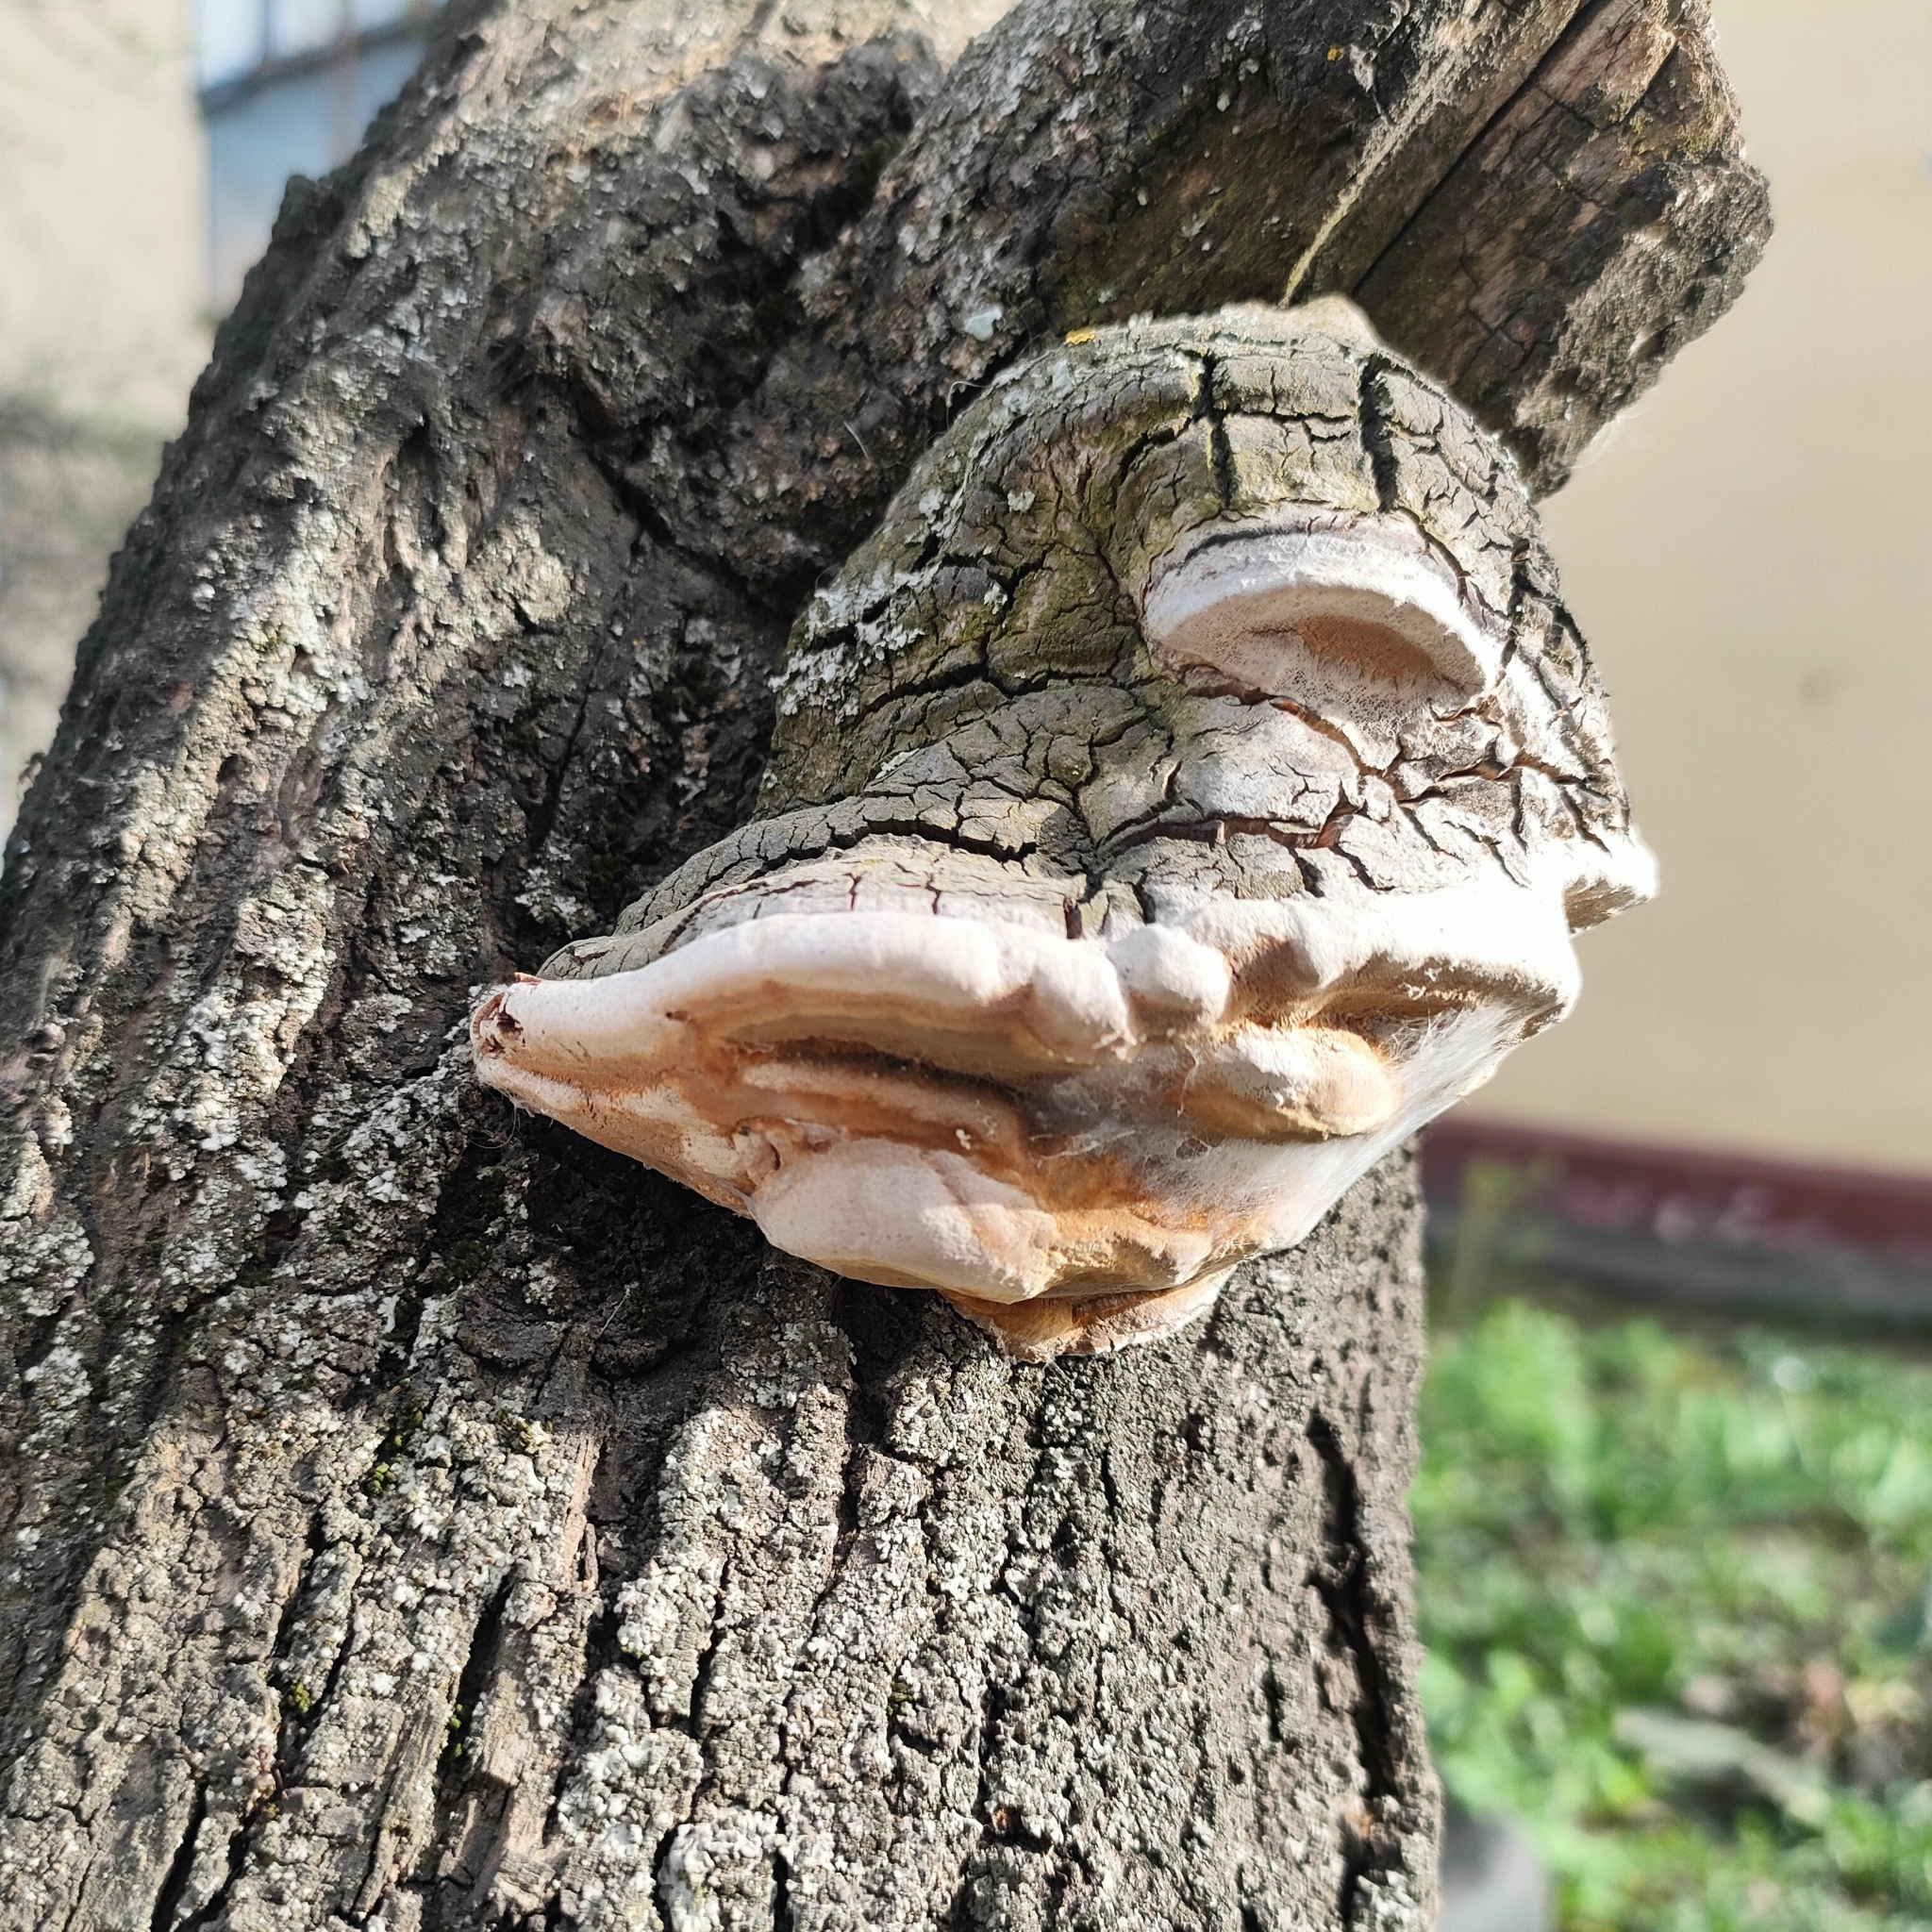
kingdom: Fungi
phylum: Basidiomycota
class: Agaricomycetes
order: Hymenochaetales
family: Hymenochaetaceae
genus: Phellinus
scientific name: Phellinus pomaceus
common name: Cushion bracket
